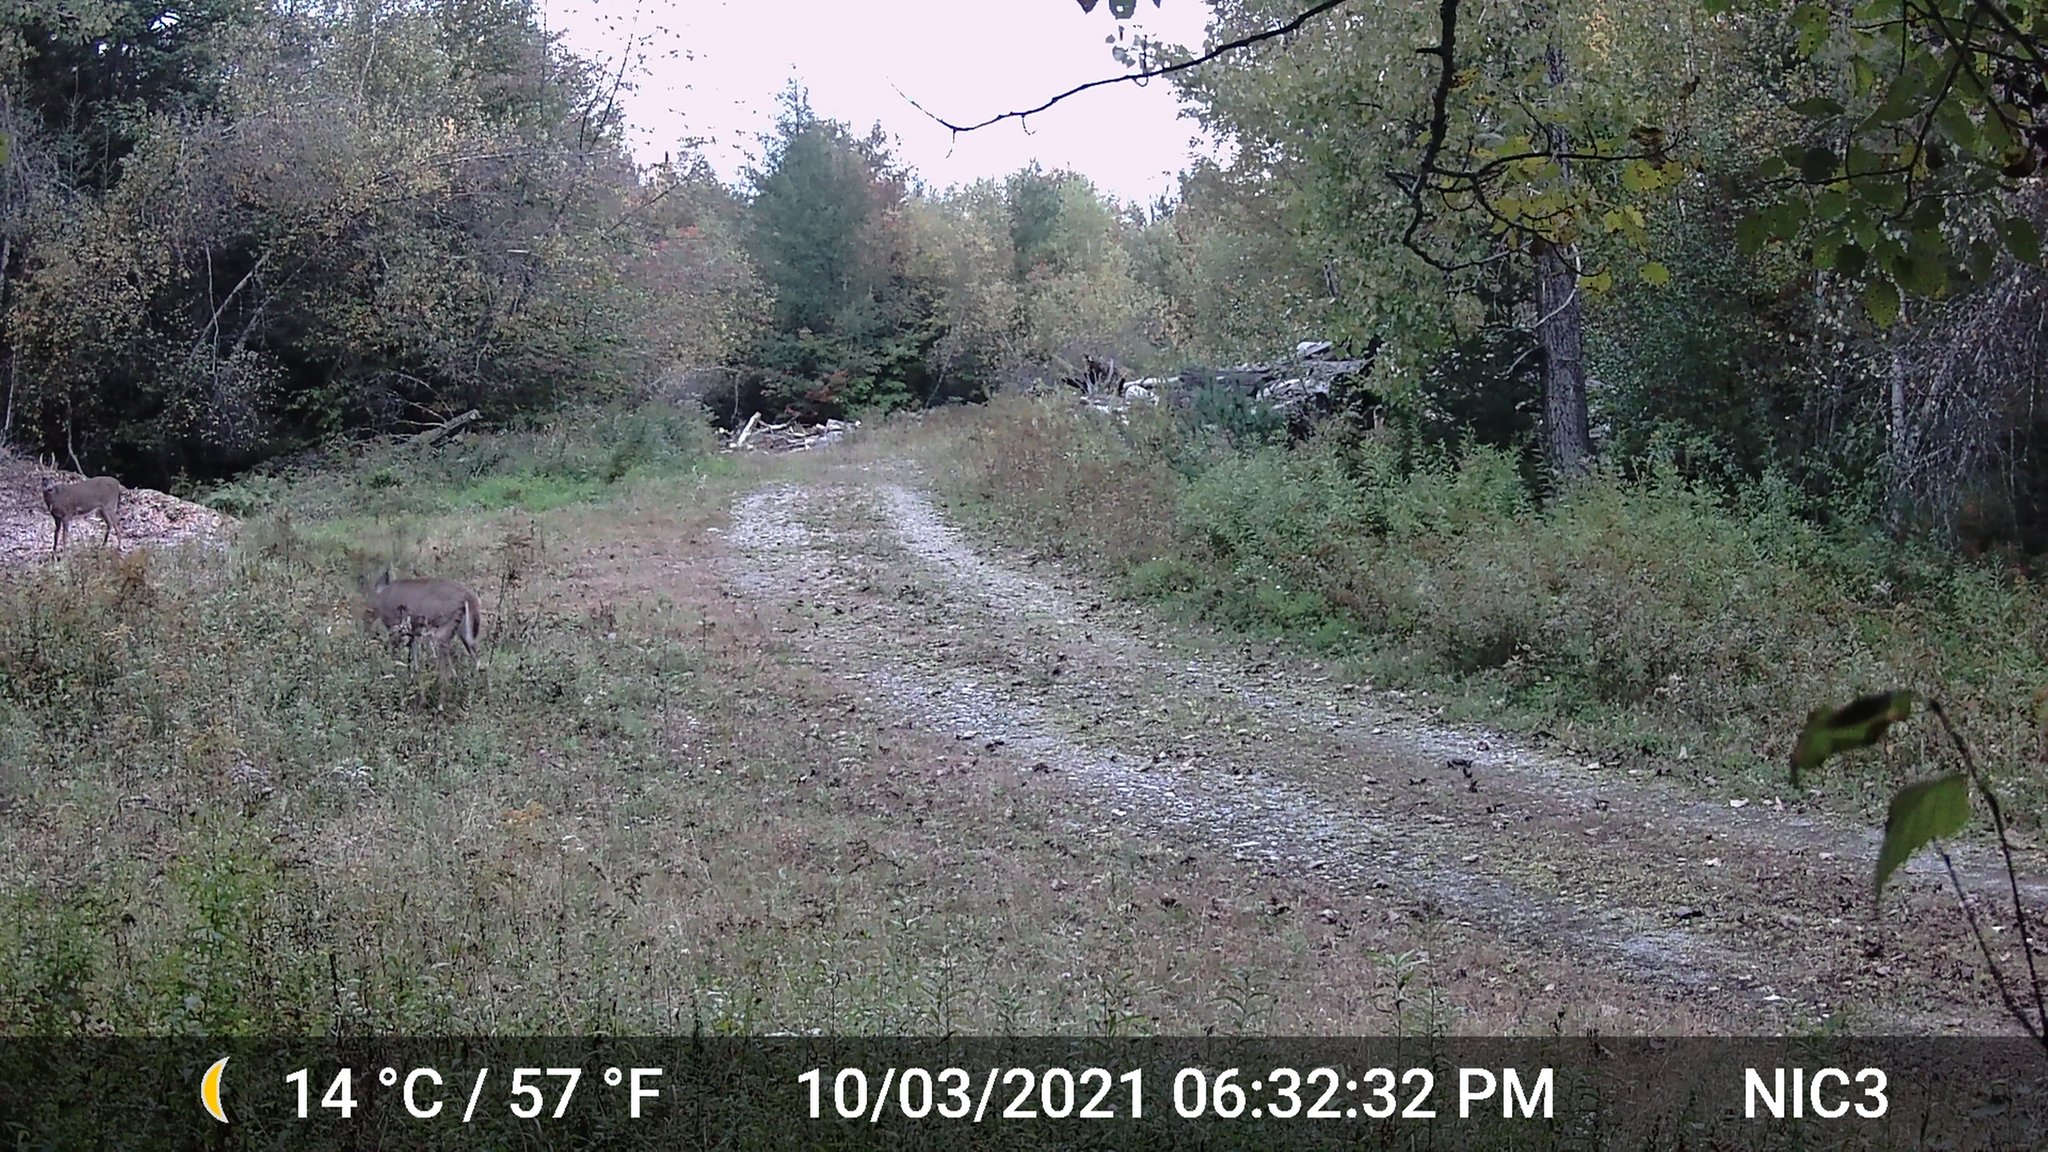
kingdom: Animalia
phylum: Chordata
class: Mammalia
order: Artiodactyla
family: Cervidae
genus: Odocoileus
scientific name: Odocoileus virginianus
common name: White-tailed deer
